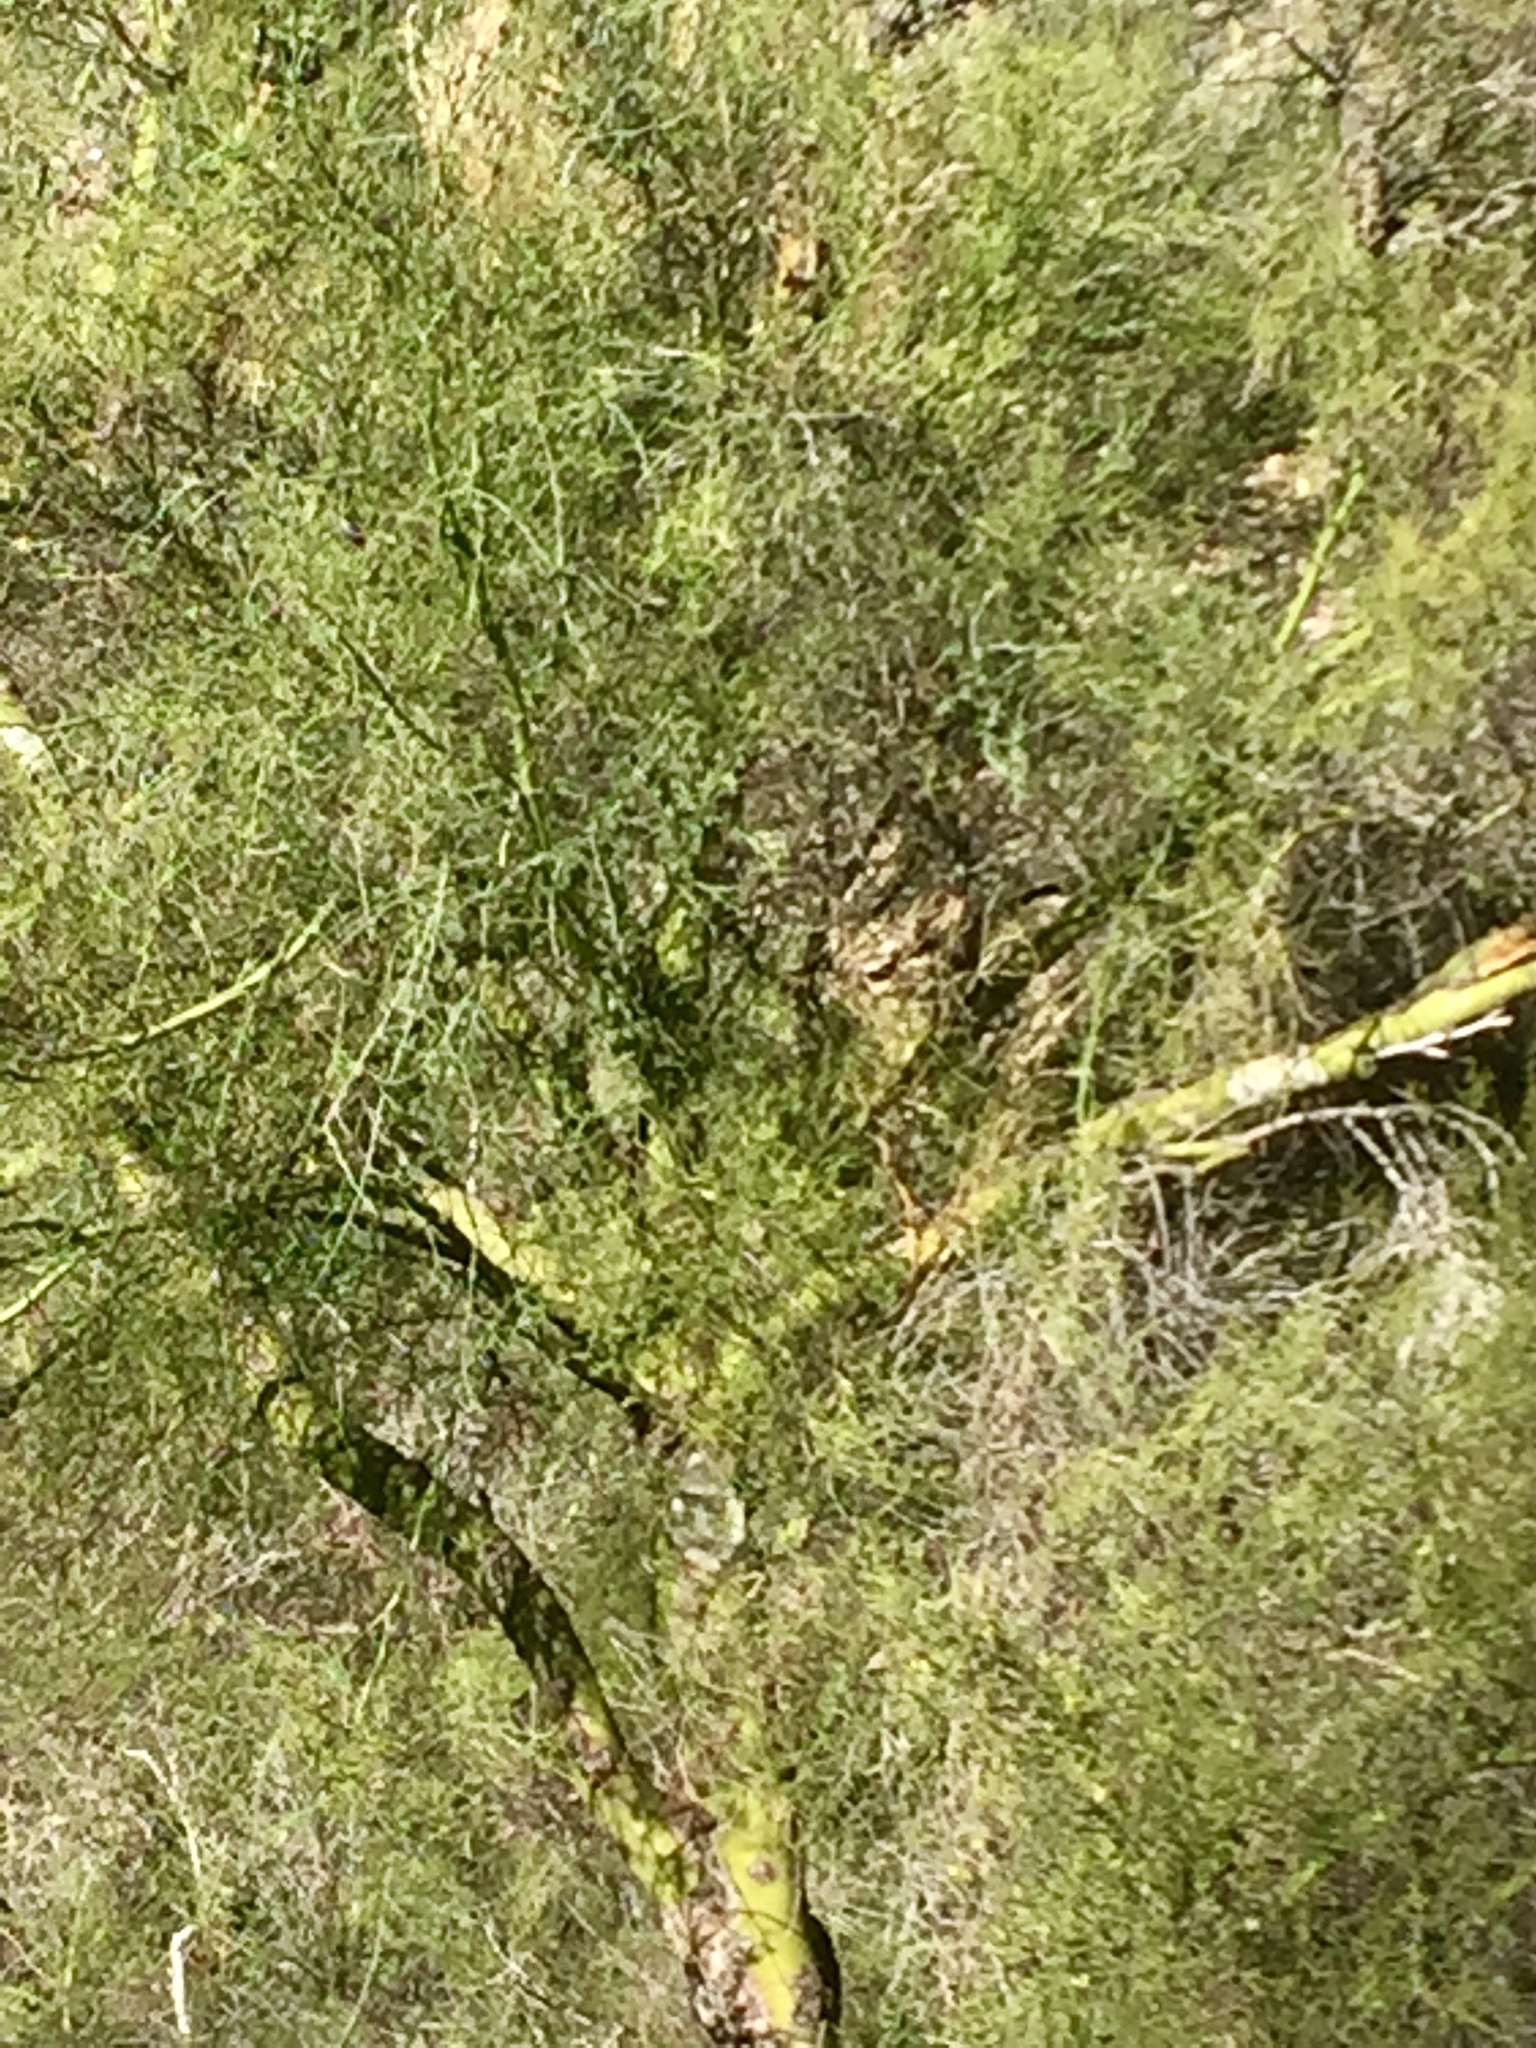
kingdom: Plantae
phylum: Tracheophyta
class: Magnoliopsida
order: Fabales
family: Fabaceae
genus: Parkinsonia
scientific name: Parkinsonia microphylla
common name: Yellow paloverde
